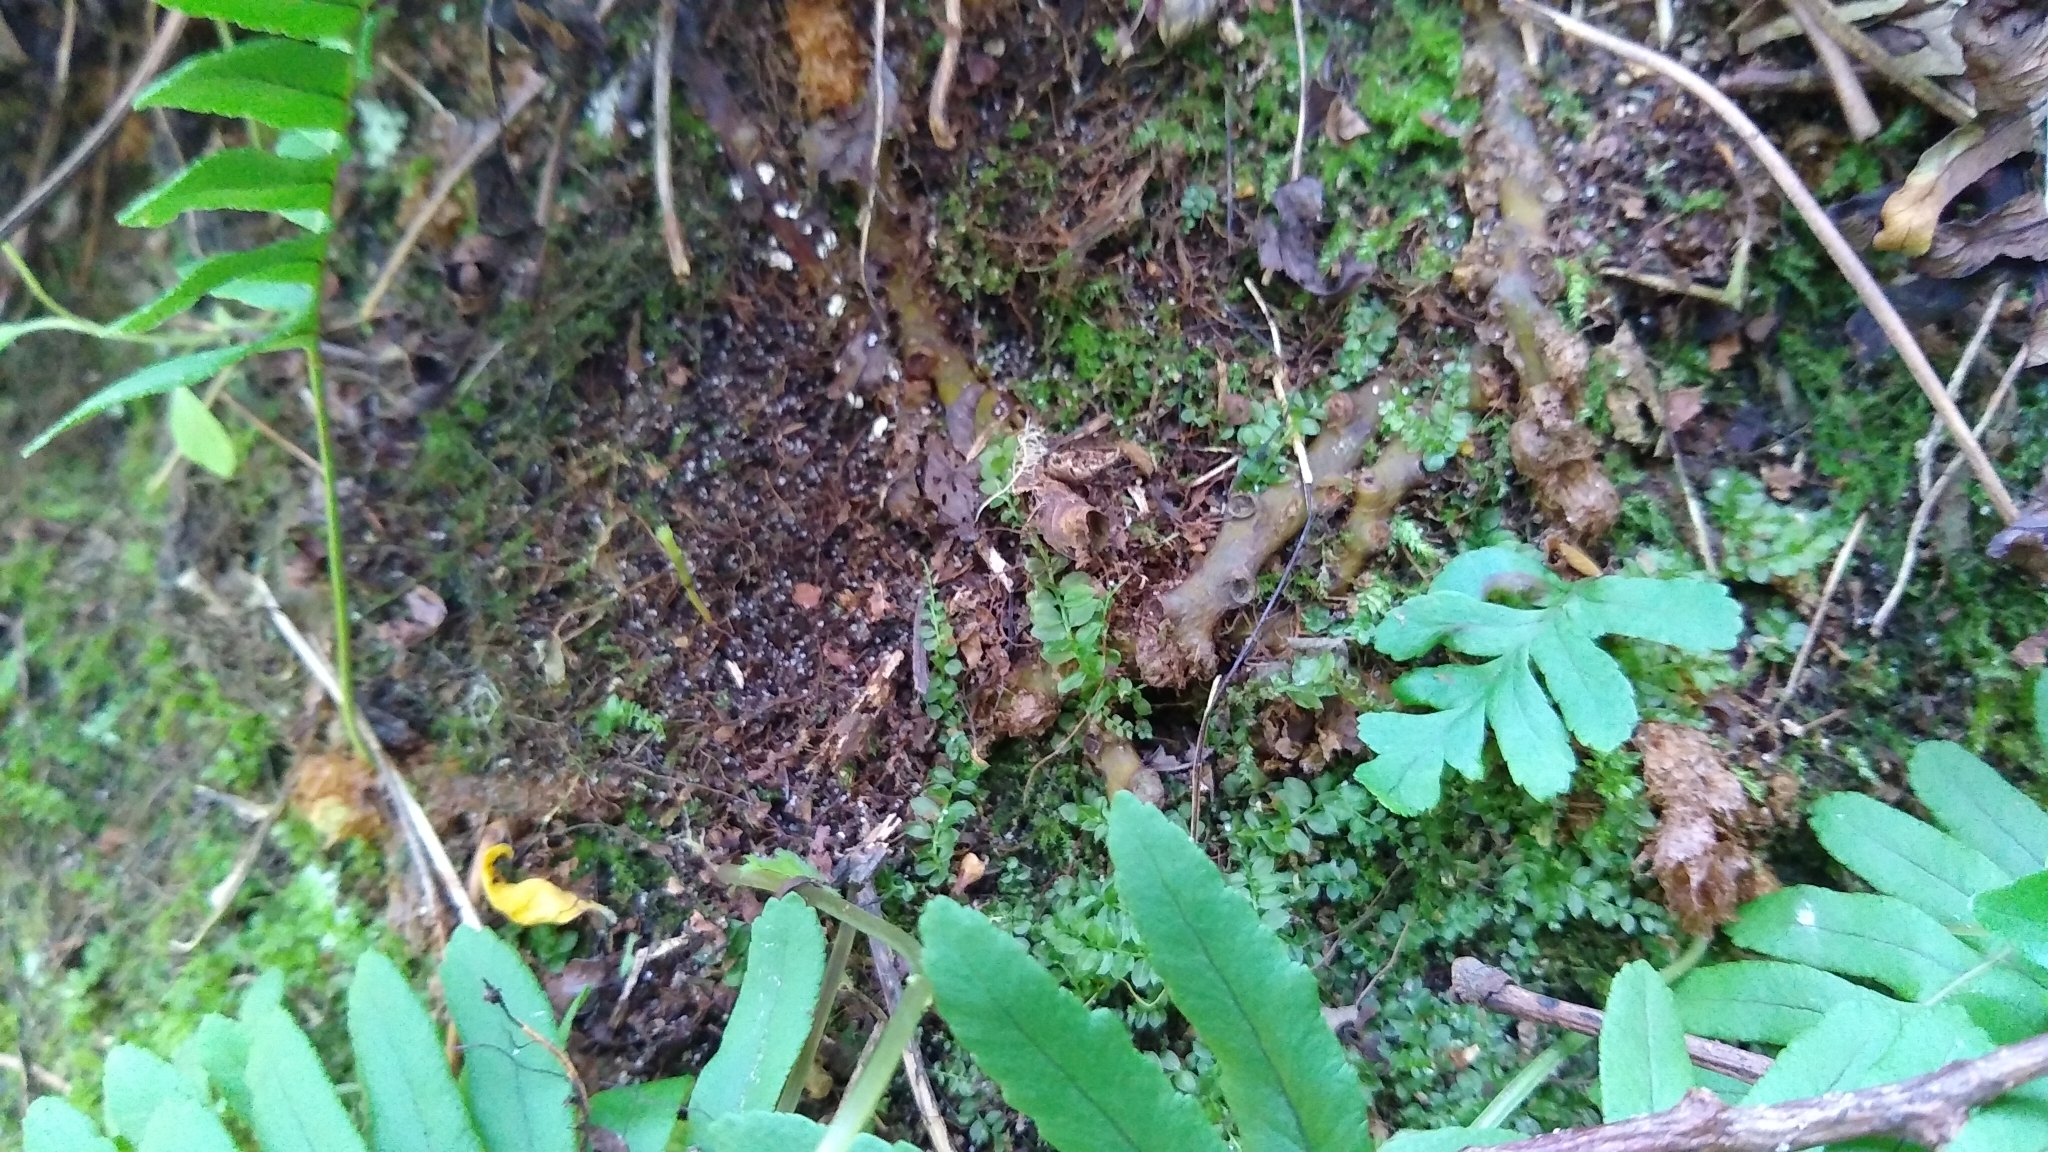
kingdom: Plantae
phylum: Tracheophyta
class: Polypodiopsida
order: Polypodiales
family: Polypodiaceae
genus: Polypodium
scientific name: Polypodium virginianum
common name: American wall fern
